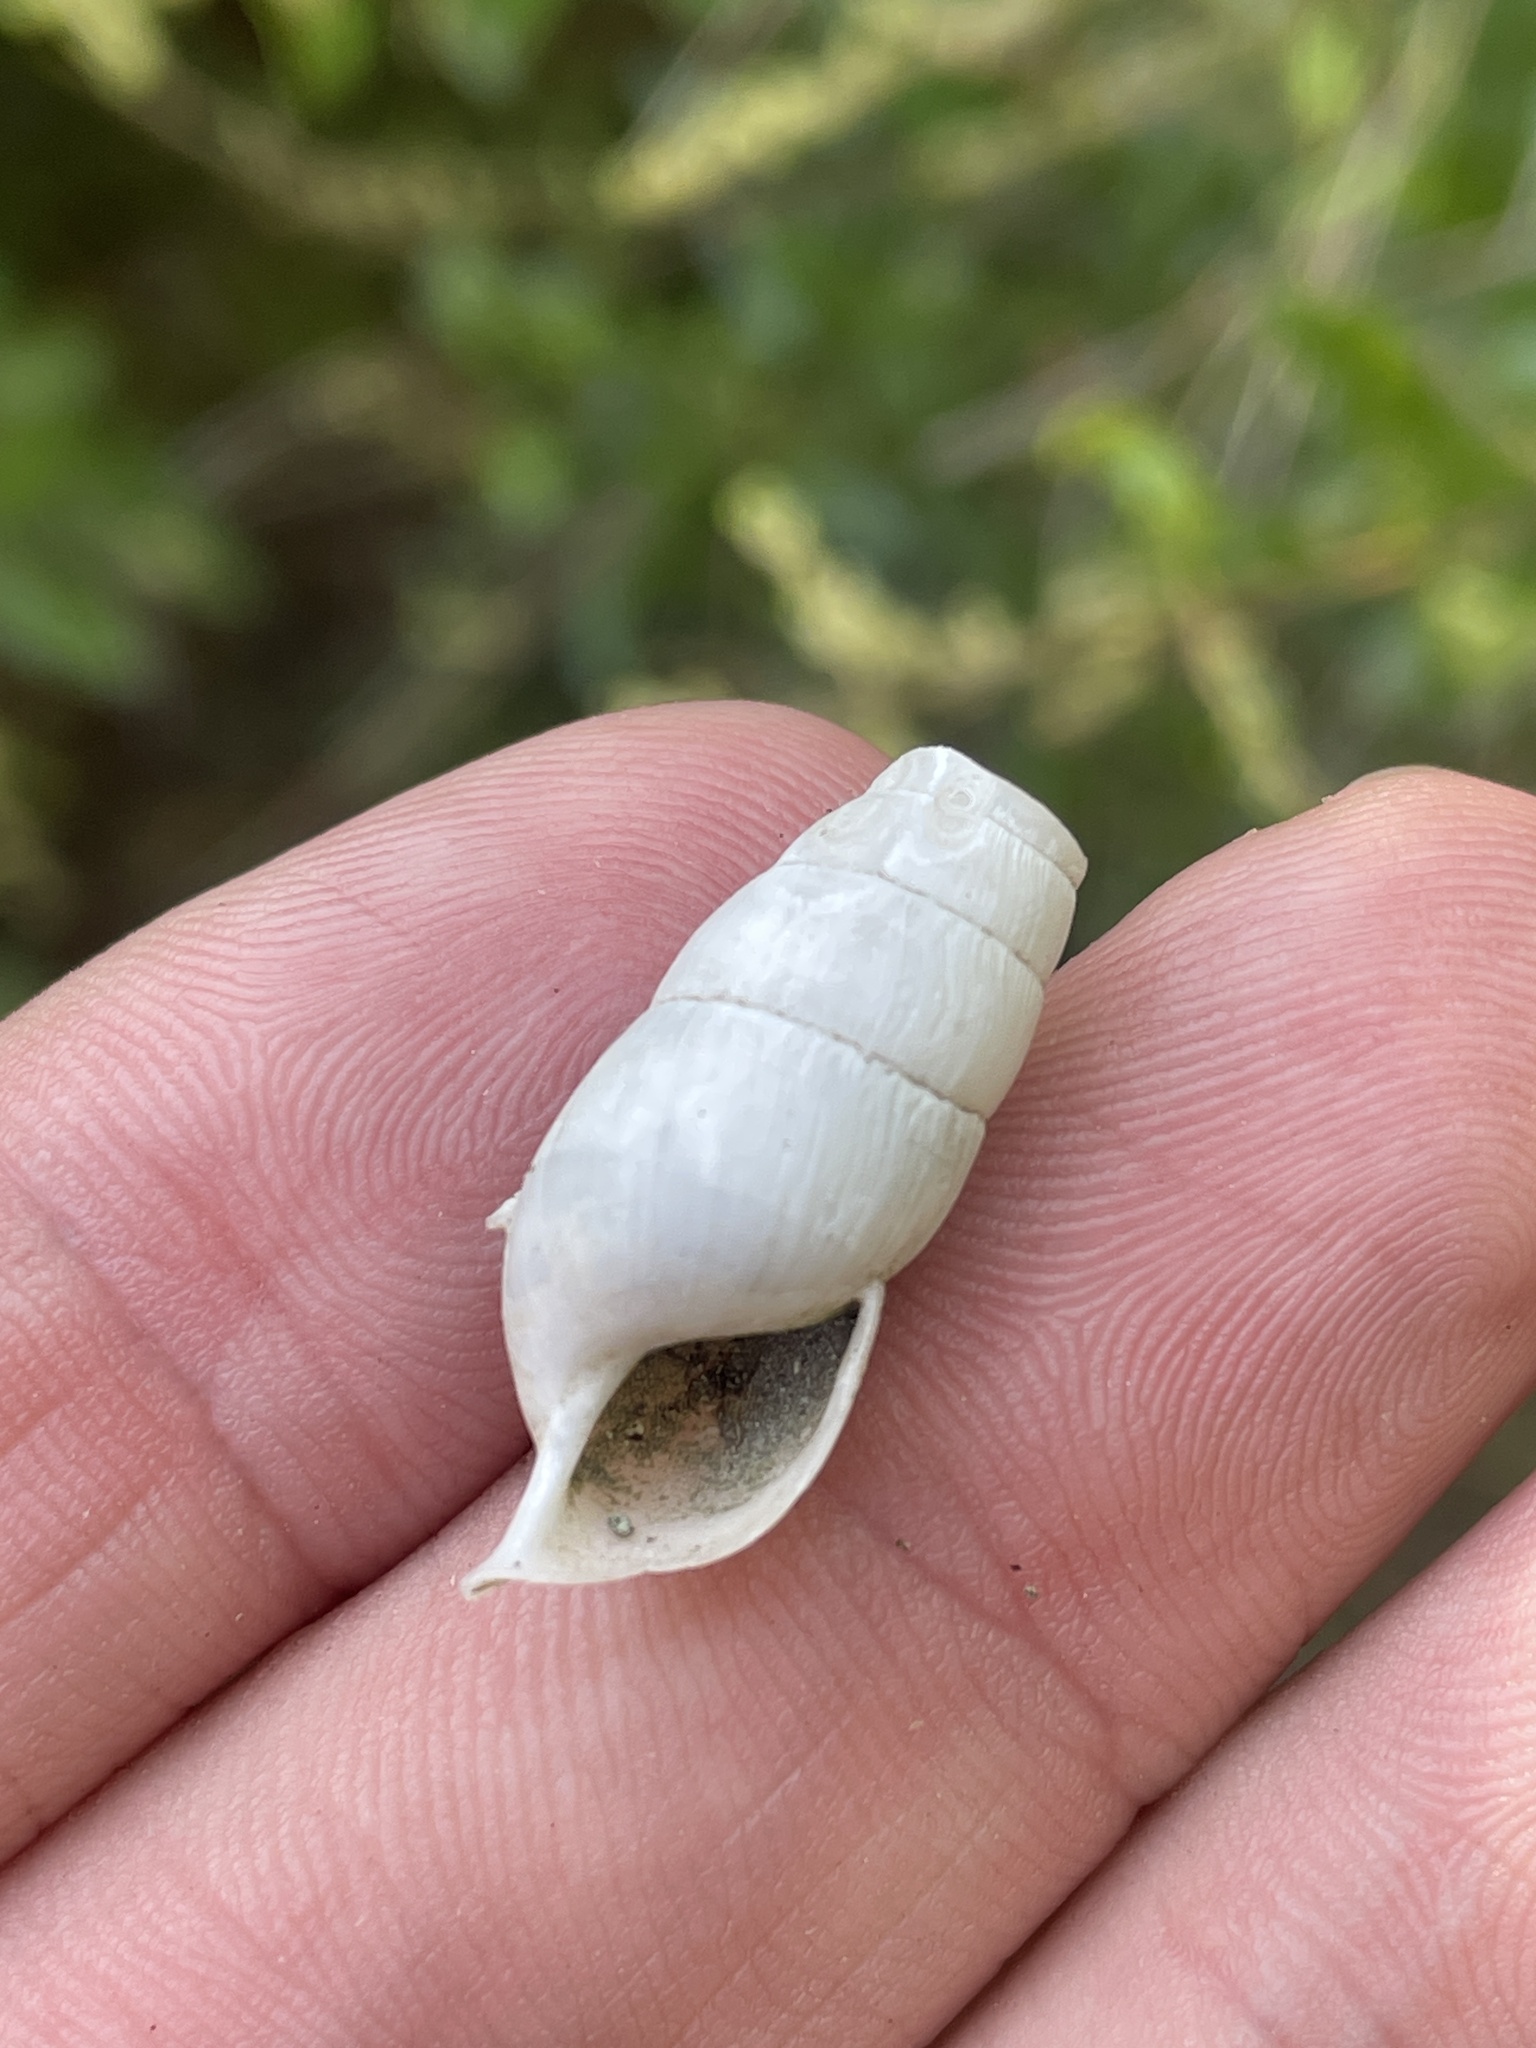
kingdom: Animalia
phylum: Mollusca
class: Gastropoda
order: Stylommatophora
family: Achatinidae
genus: Rumina
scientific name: Rumina decollata
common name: Decollate snail
